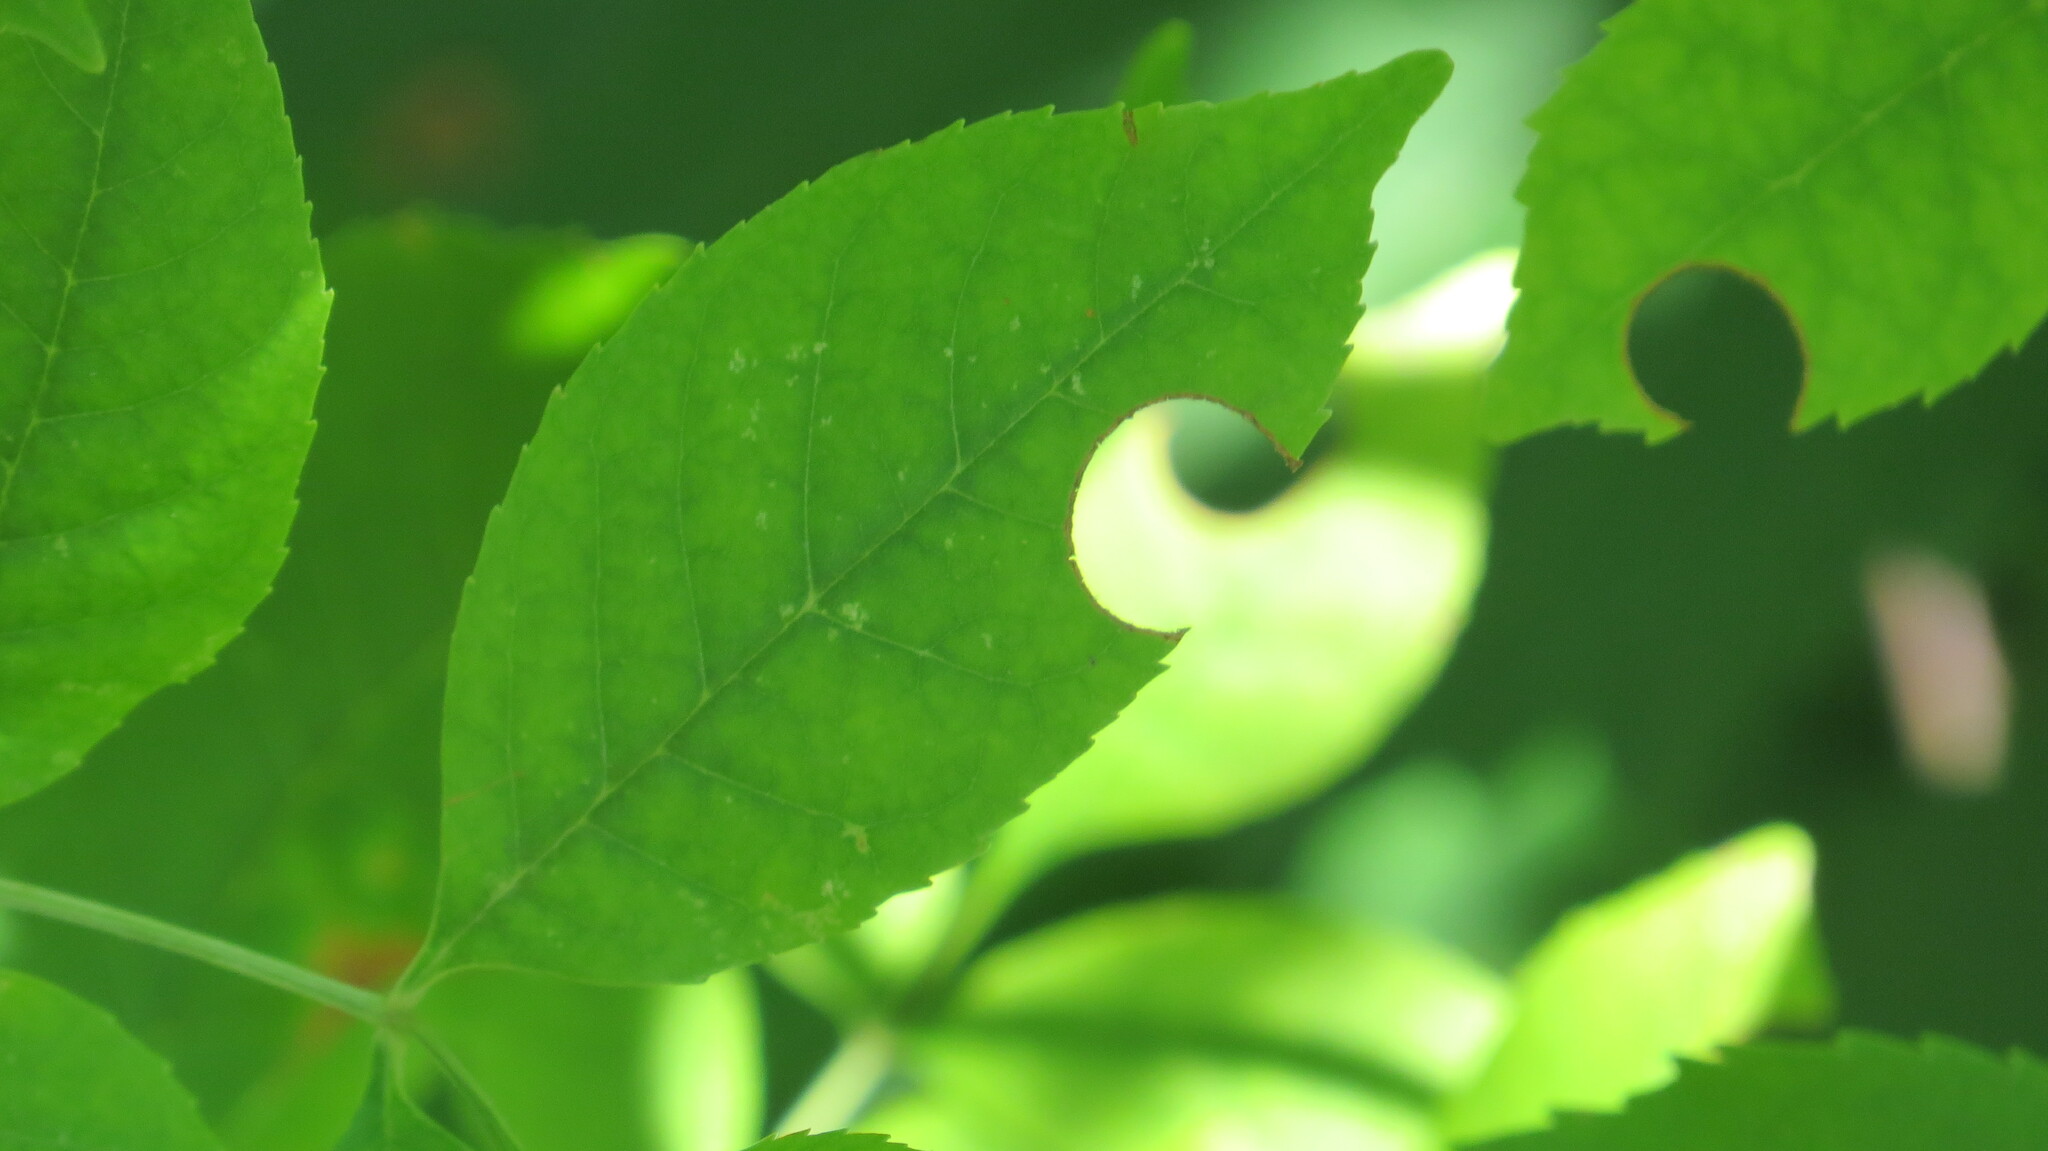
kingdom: Plantae
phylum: Tracheophyta
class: Magnoliopsida
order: Lamiales
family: Oleaceae
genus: Fraxinus
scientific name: Fraxinus pennsylvanica
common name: Green ash
